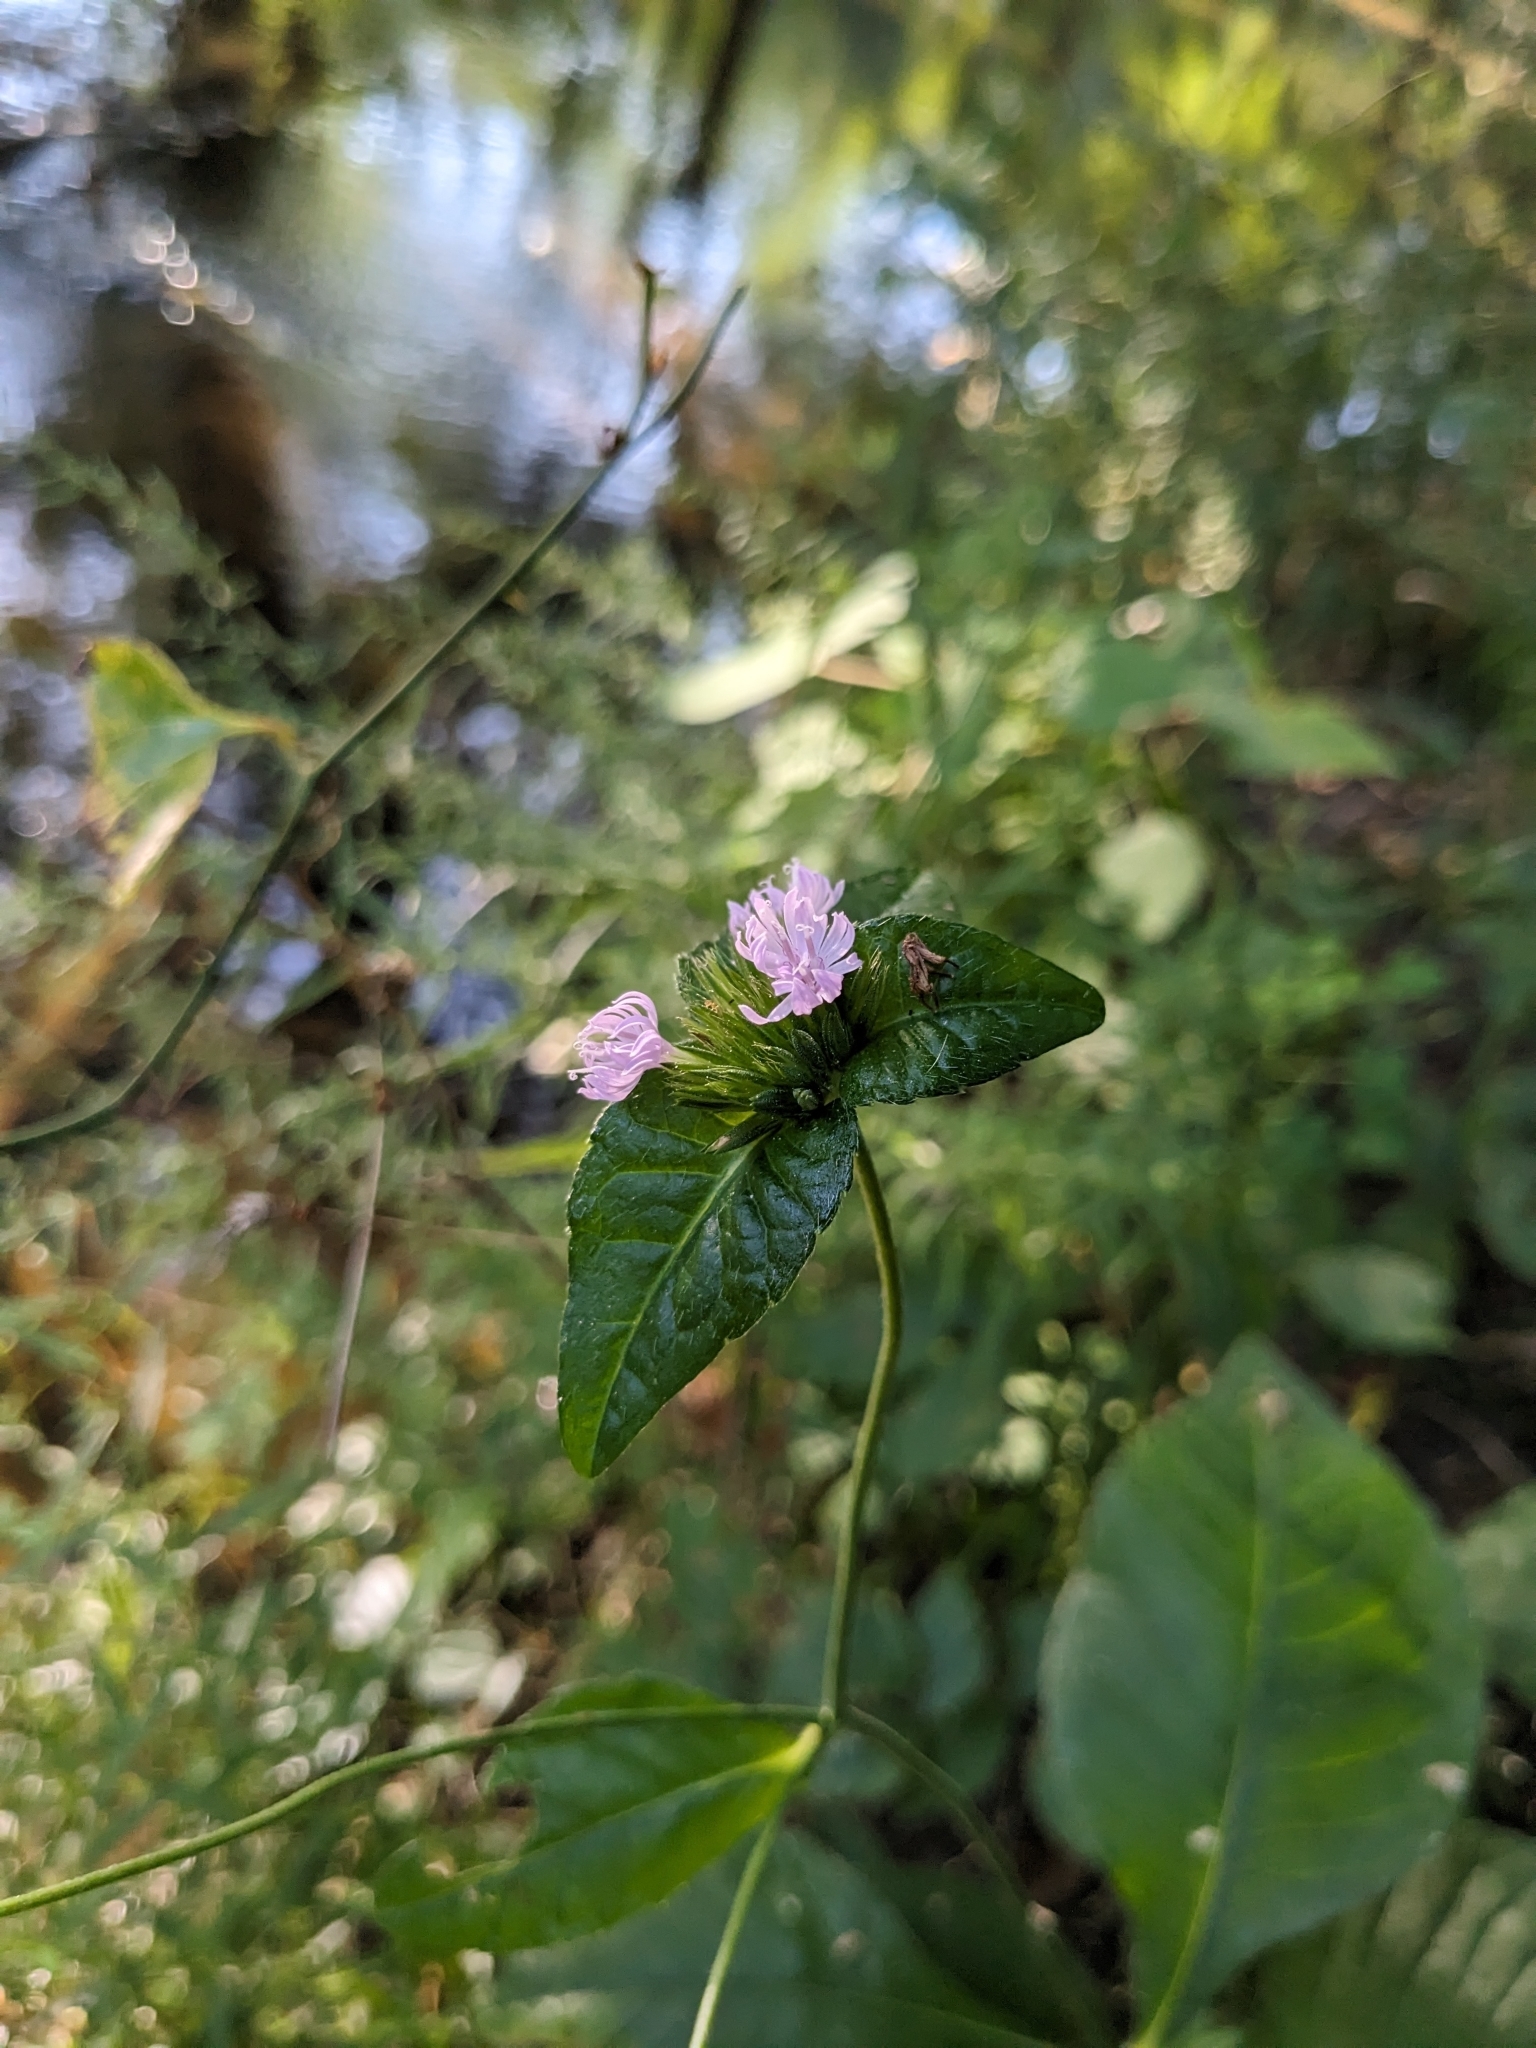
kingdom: Plantae
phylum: Tracheophyta
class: Magnoliopsida
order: Asterales
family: Asteraceae
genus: Elephantopus
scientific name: Elephantopus carolinianus
